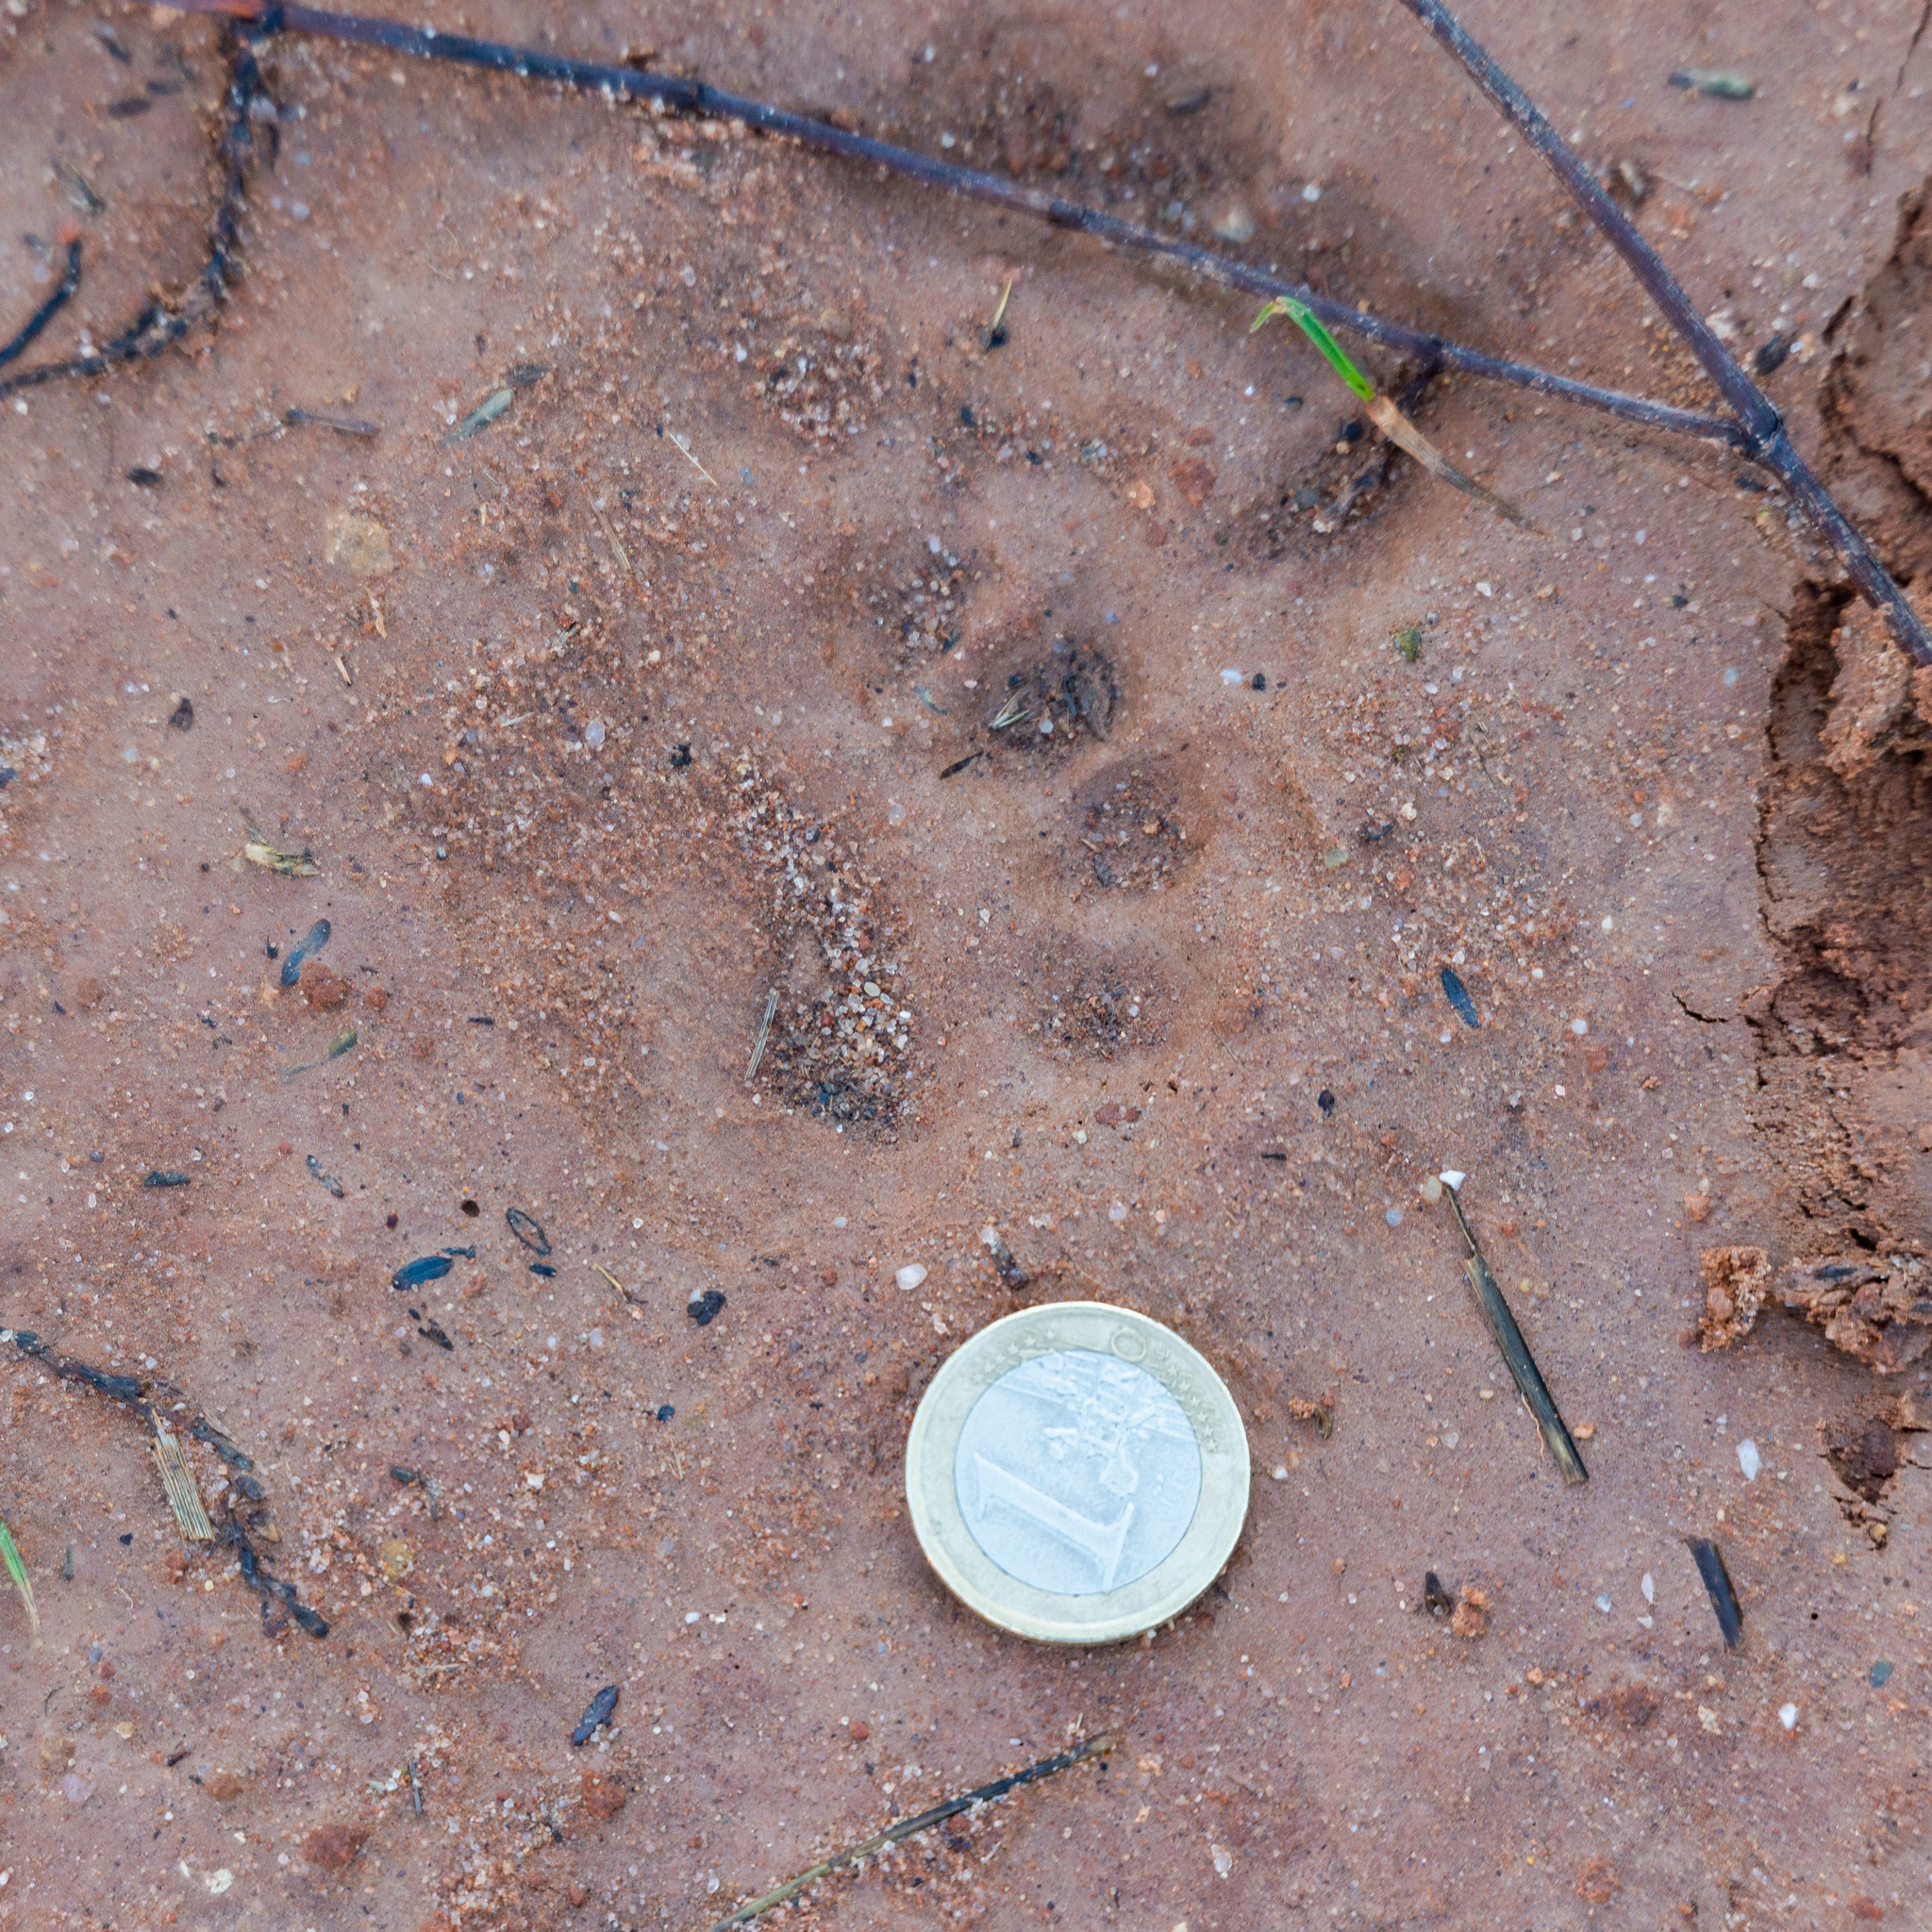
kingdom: Animalia
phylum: Chordata
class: Mammalia
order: Carnivora
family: Mustelidae
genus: Meles
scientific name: Meles meles
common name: Eurasian badger
